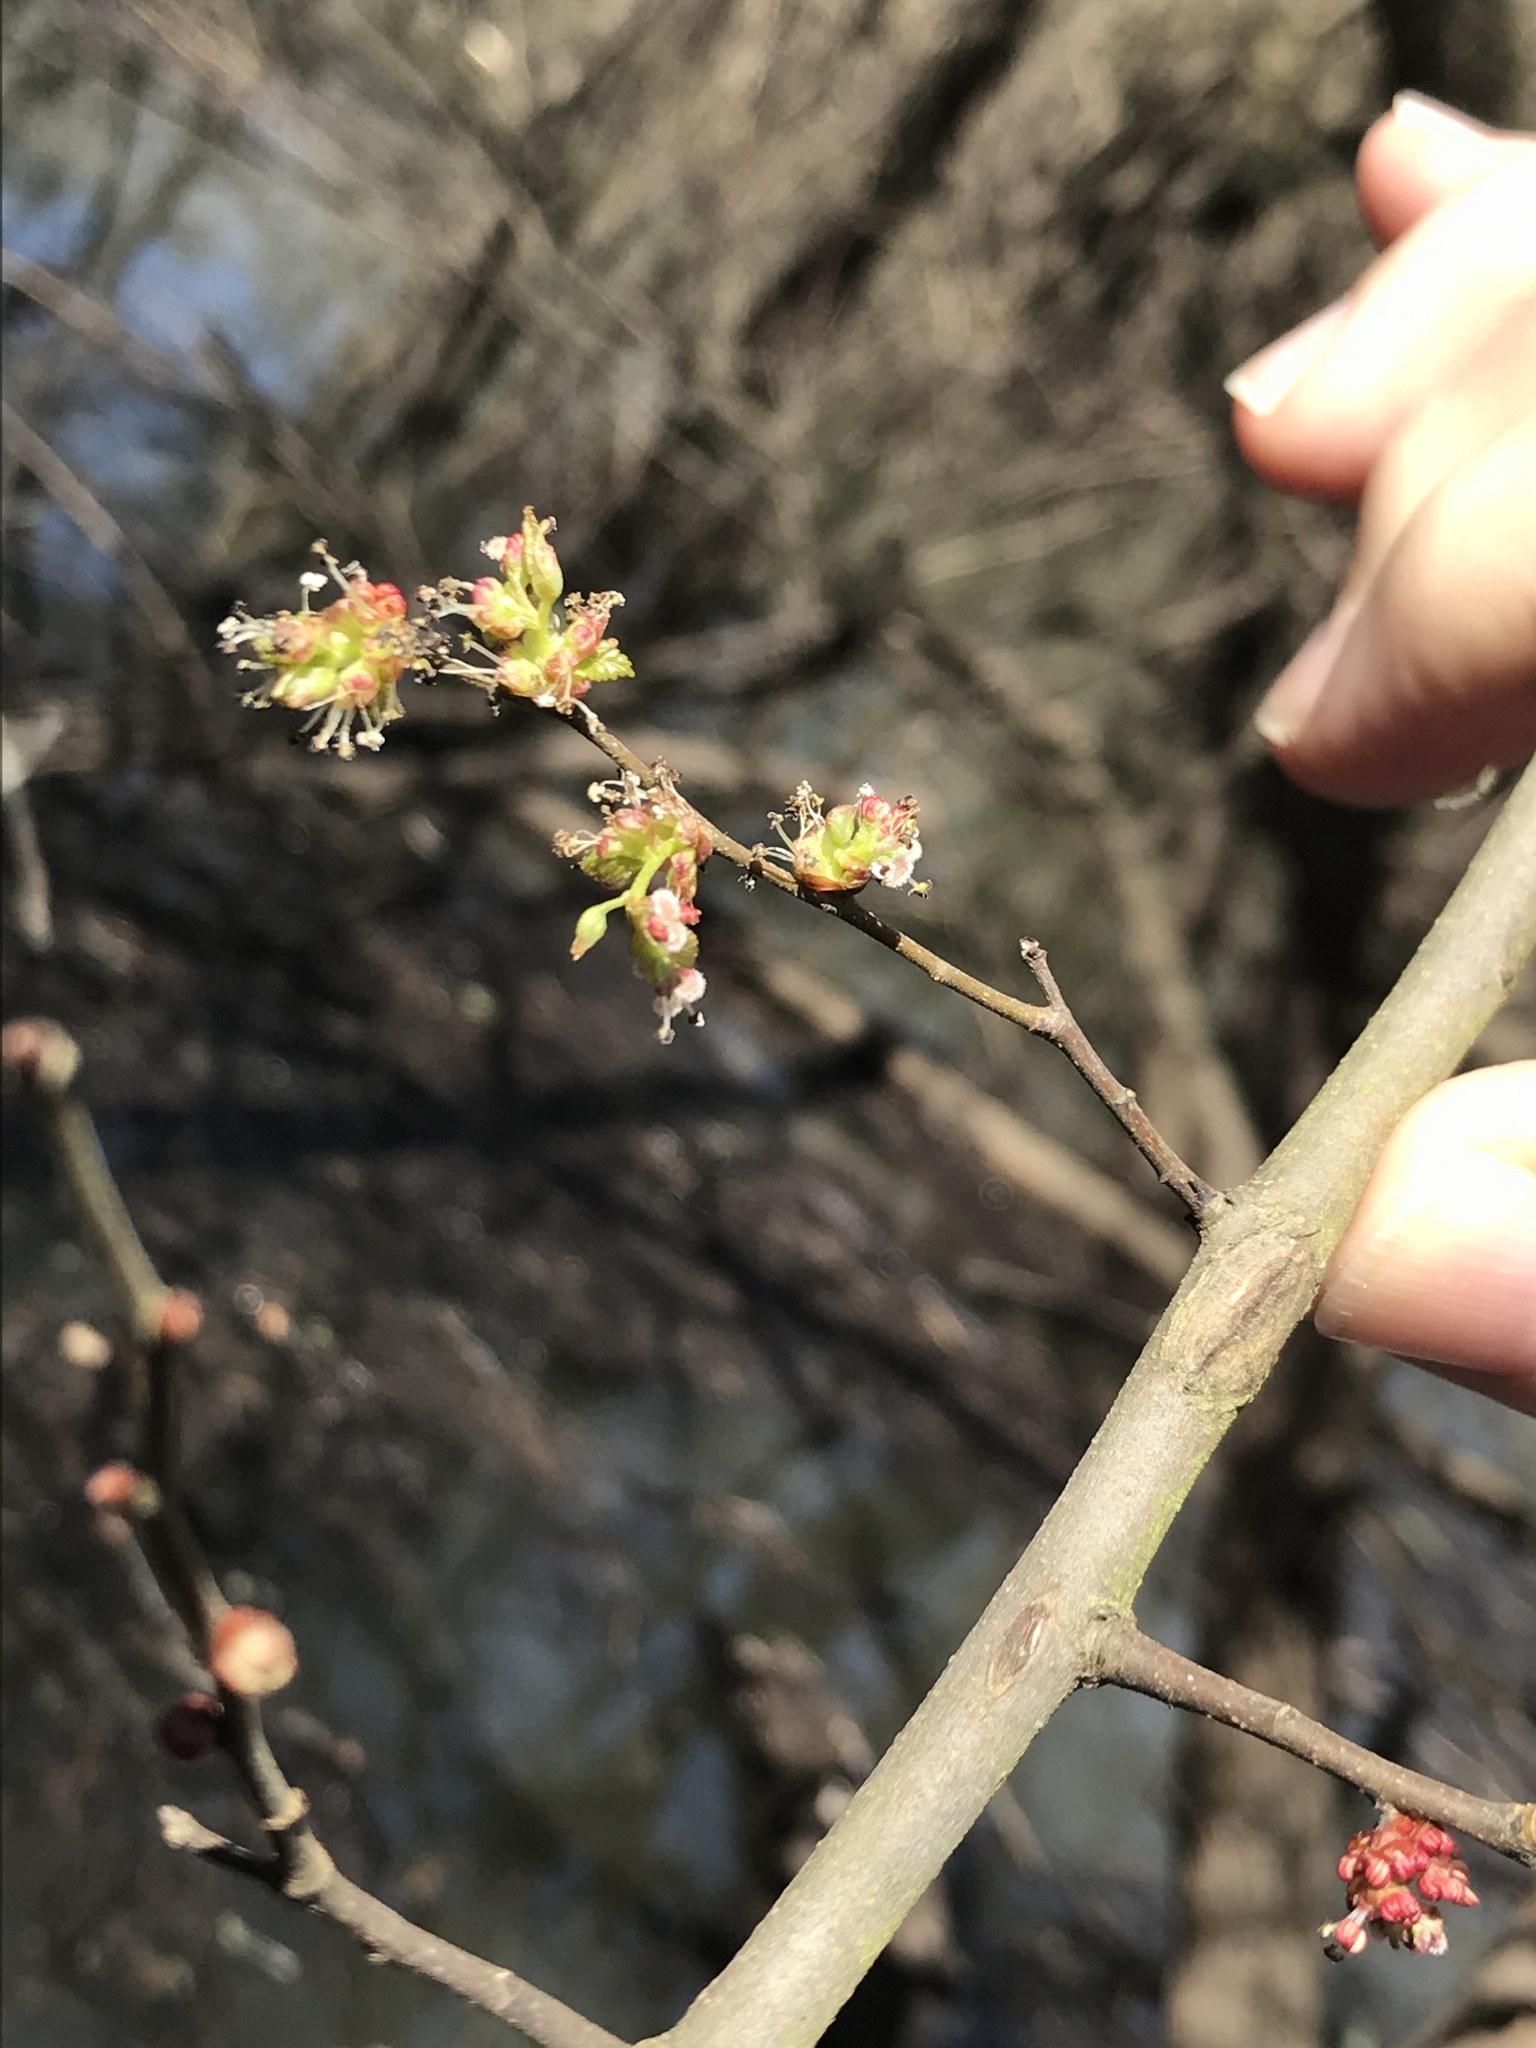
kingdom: Plantae
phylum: Tracheophyta
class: Magnoliopsida
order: Rosales
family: Ulmaceae
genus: Ulmus
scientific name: Ulmus americana
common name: American elm
